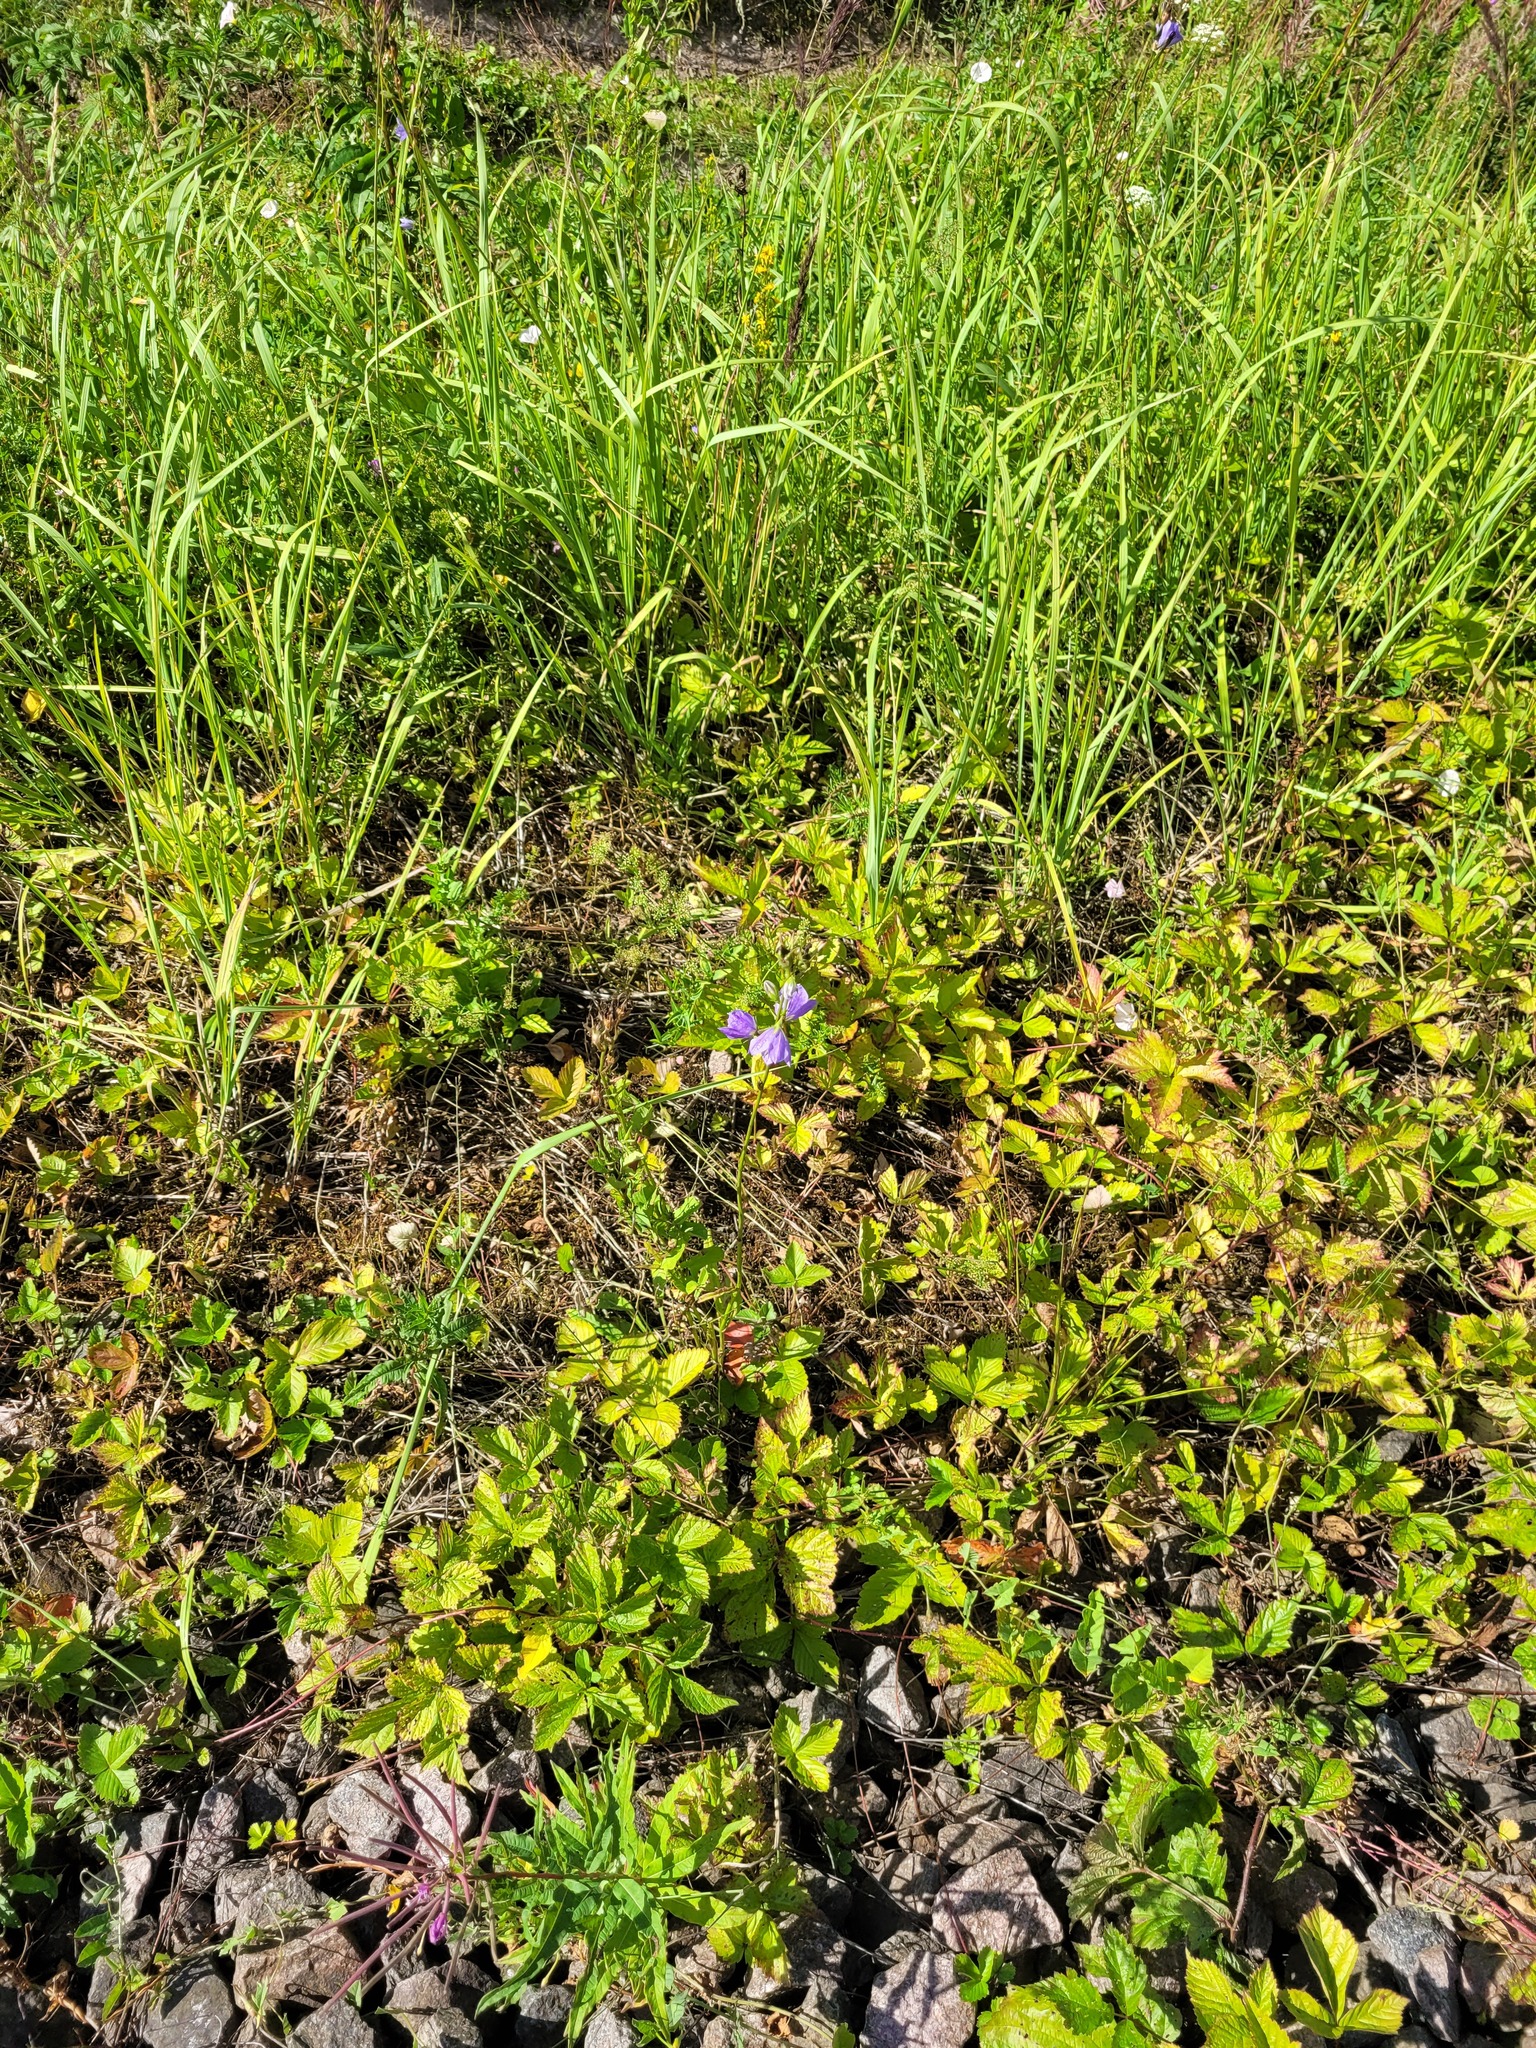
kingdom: Plantae
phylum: Tracheophyta
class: Magnoliopsida
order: Asterales
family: Campanulaceae
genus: Campanula
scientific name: Campanula persicifolia
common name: Peach-leaved bellflower
